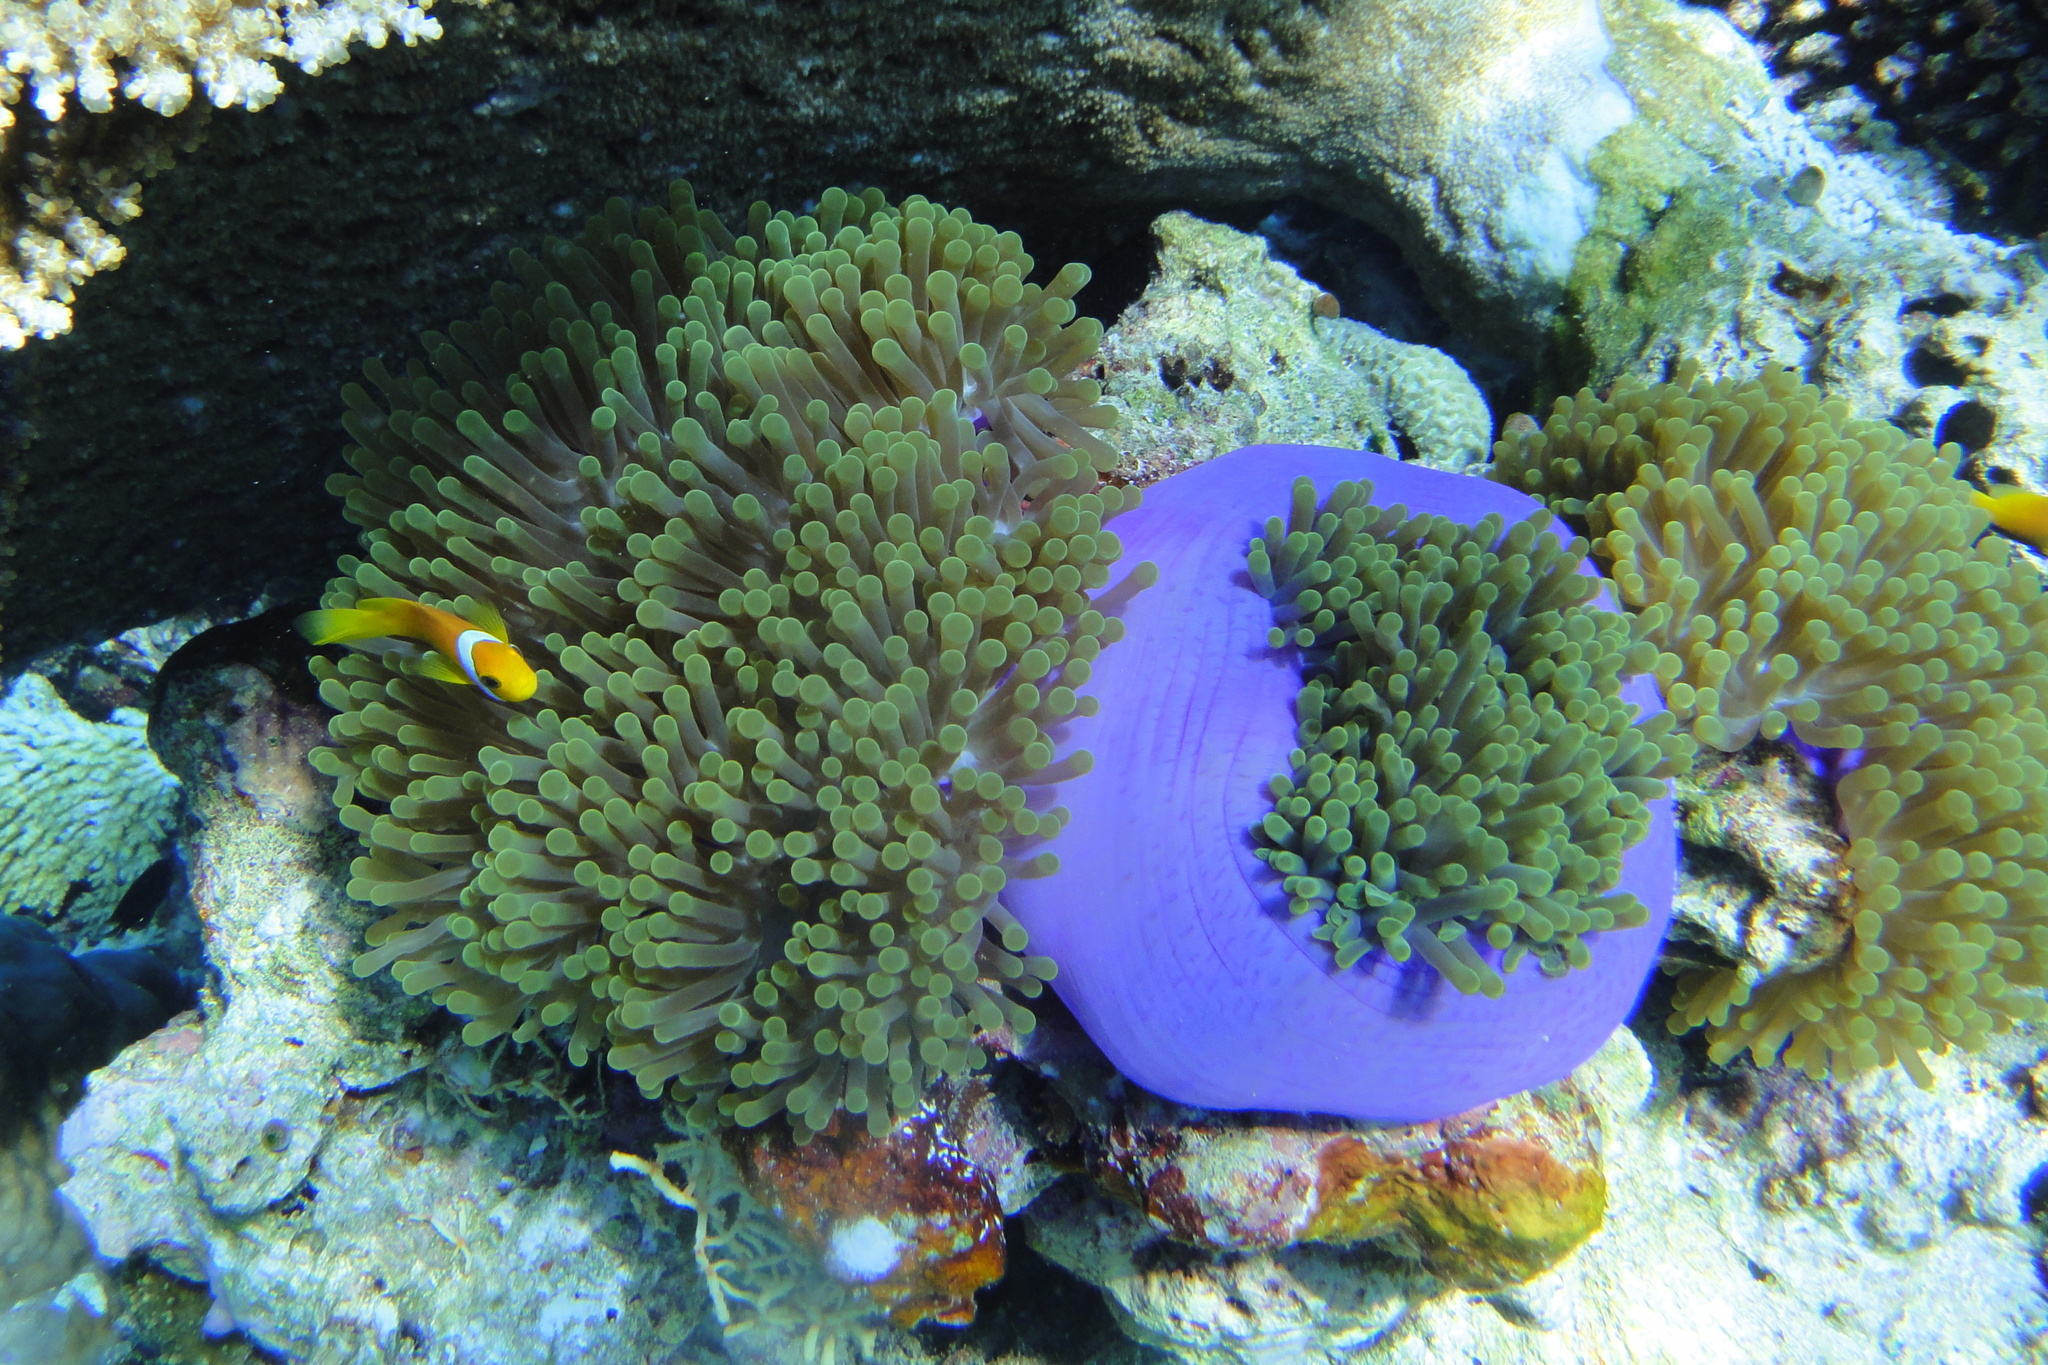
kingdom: Animalia
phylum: Chordata
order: Perciformes
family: Pomacentridae
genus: Amphiprion
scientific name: Amphiprion nigripes
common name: Maldive anemonefish
